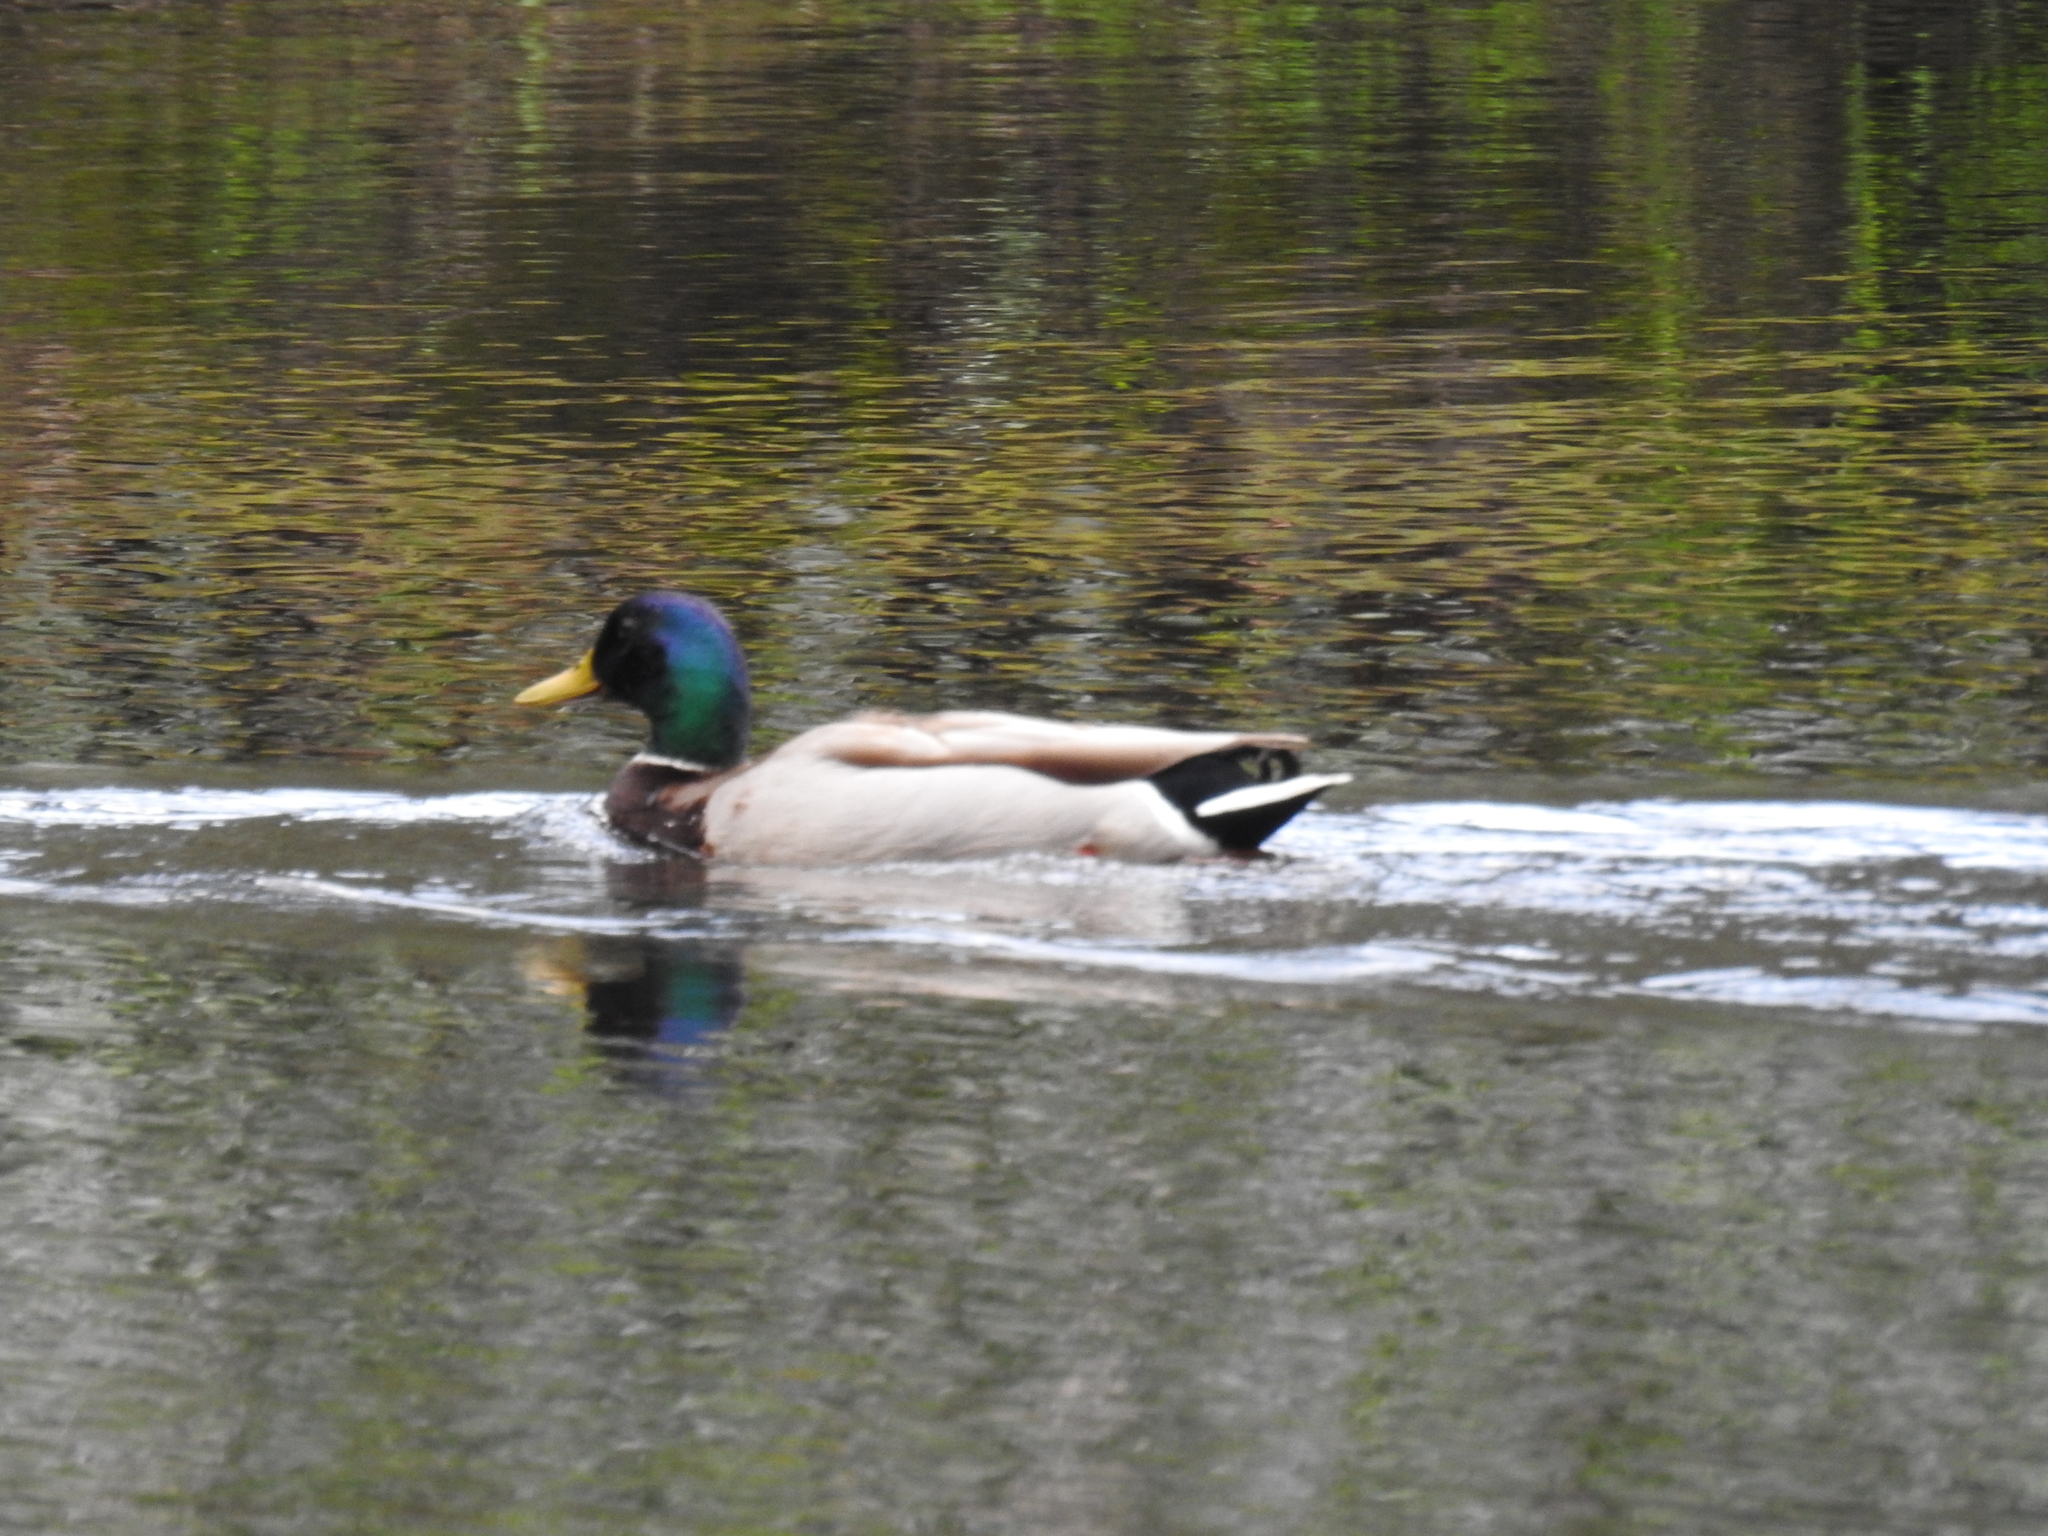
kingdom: Animalia
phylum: Chordata
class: Aves
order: Anseriformes
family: Anatidae
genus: Anas
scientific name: Anas platyrhynchos
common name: Mallard
